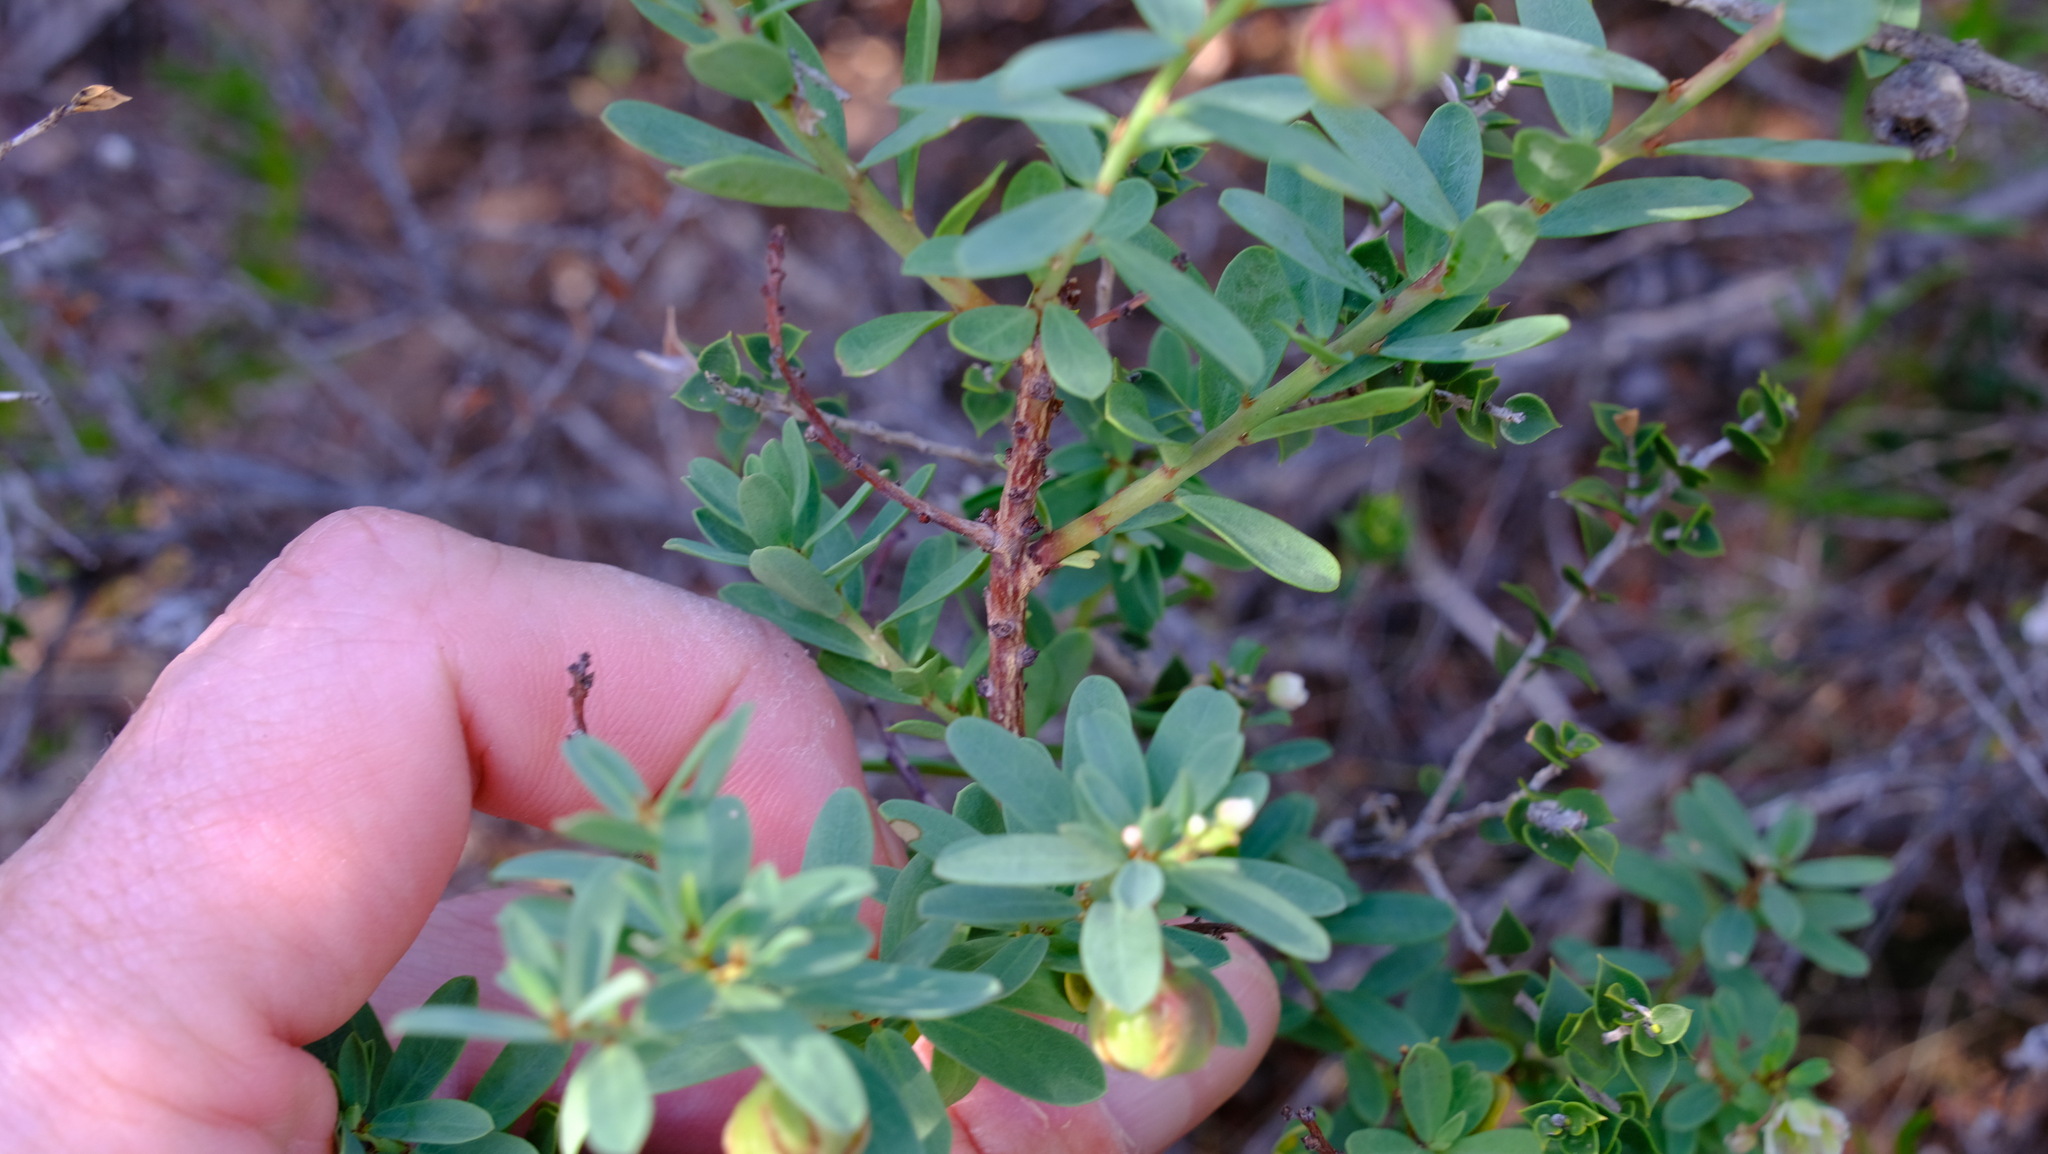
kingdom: Plantae
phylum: Tracheophyta
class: Magnoliopsida
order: Malpighiales
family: Phyllanthaceae
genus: Phyllanthus
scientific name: Phyllanthus calycinus
